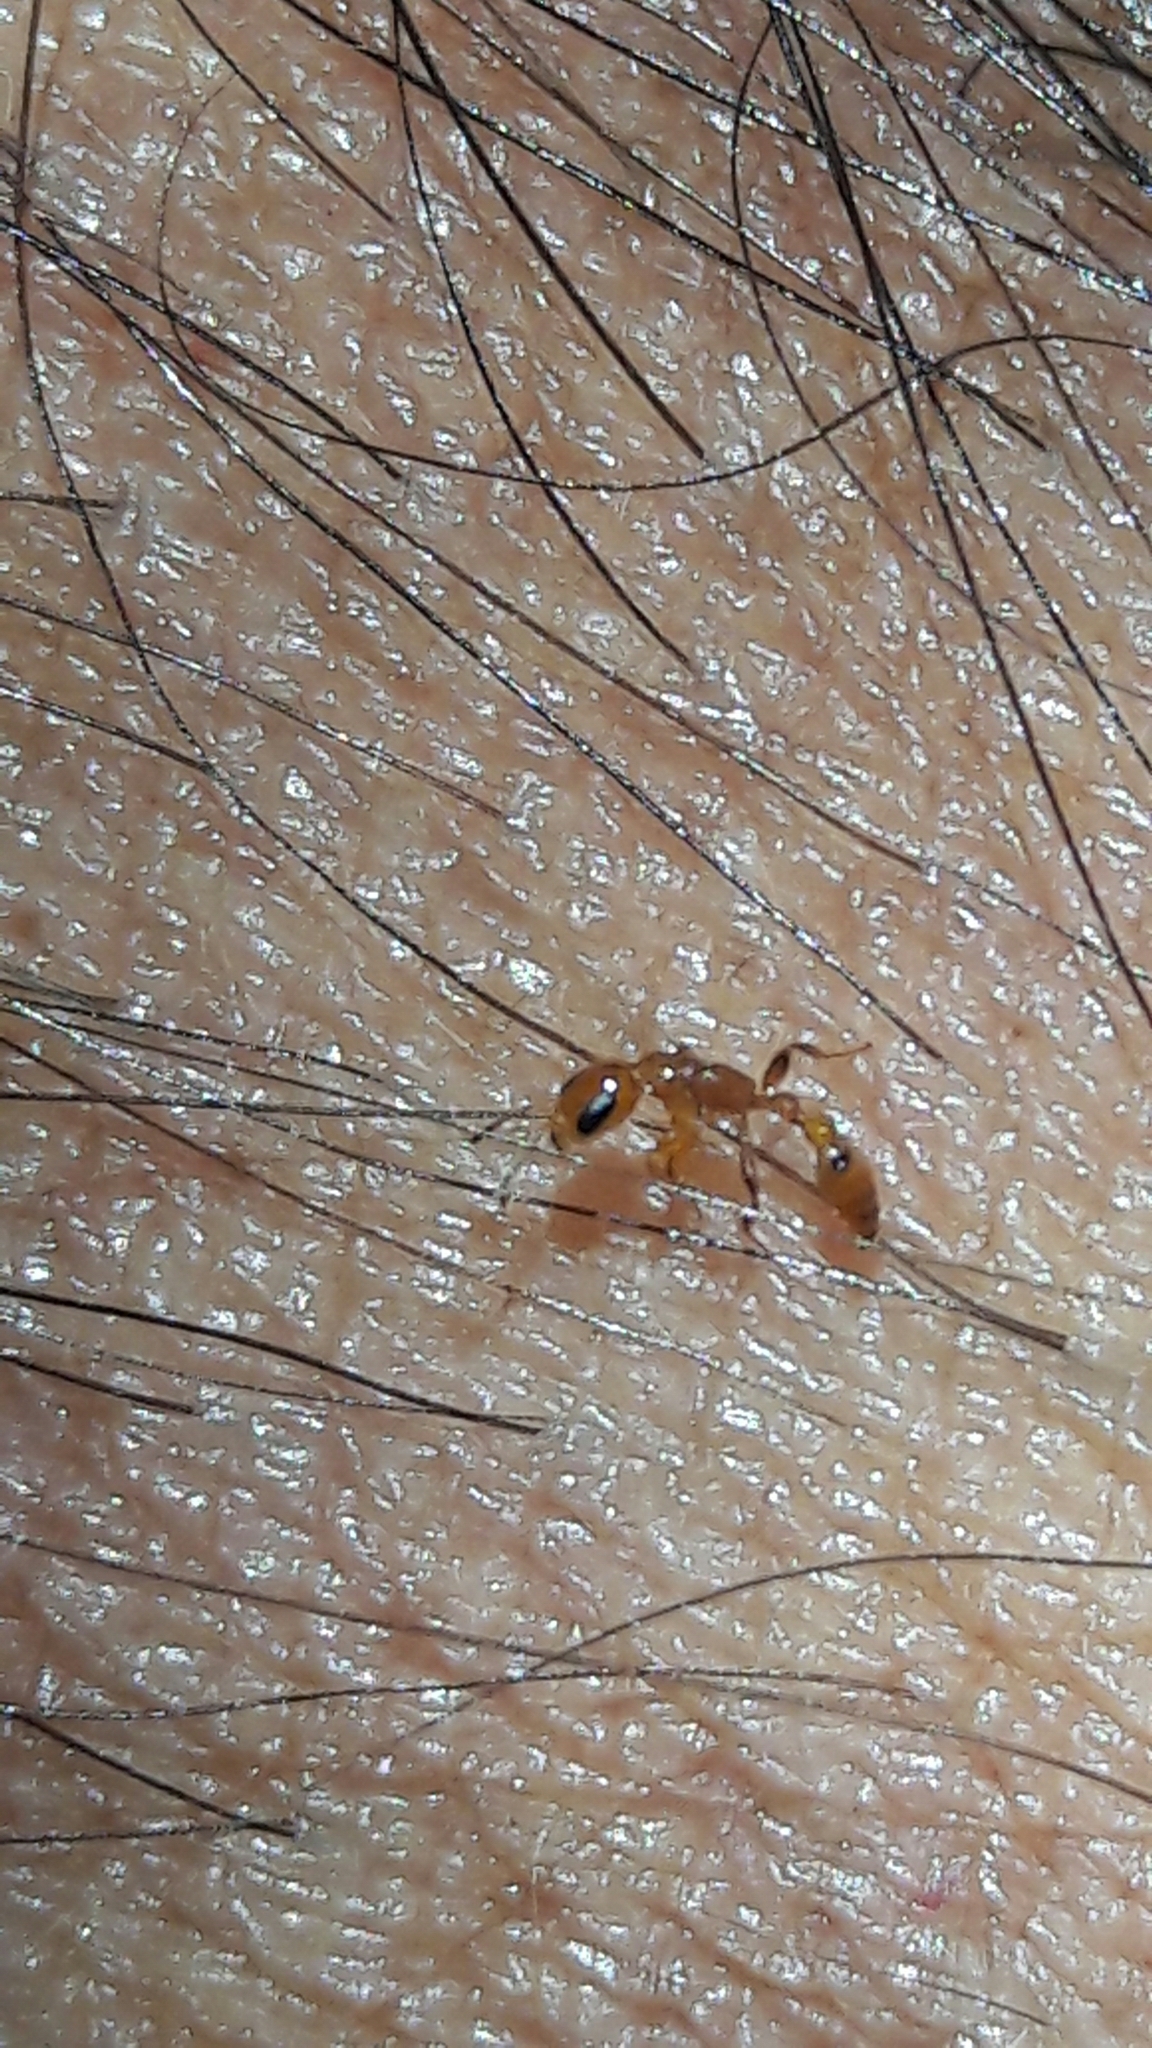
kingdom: Animalia
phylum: Arthropoda
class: Insecta
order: Hymenoptera
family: Formicidae
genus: Pseudomyrmex
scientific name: Pseudomyrmex simplex
